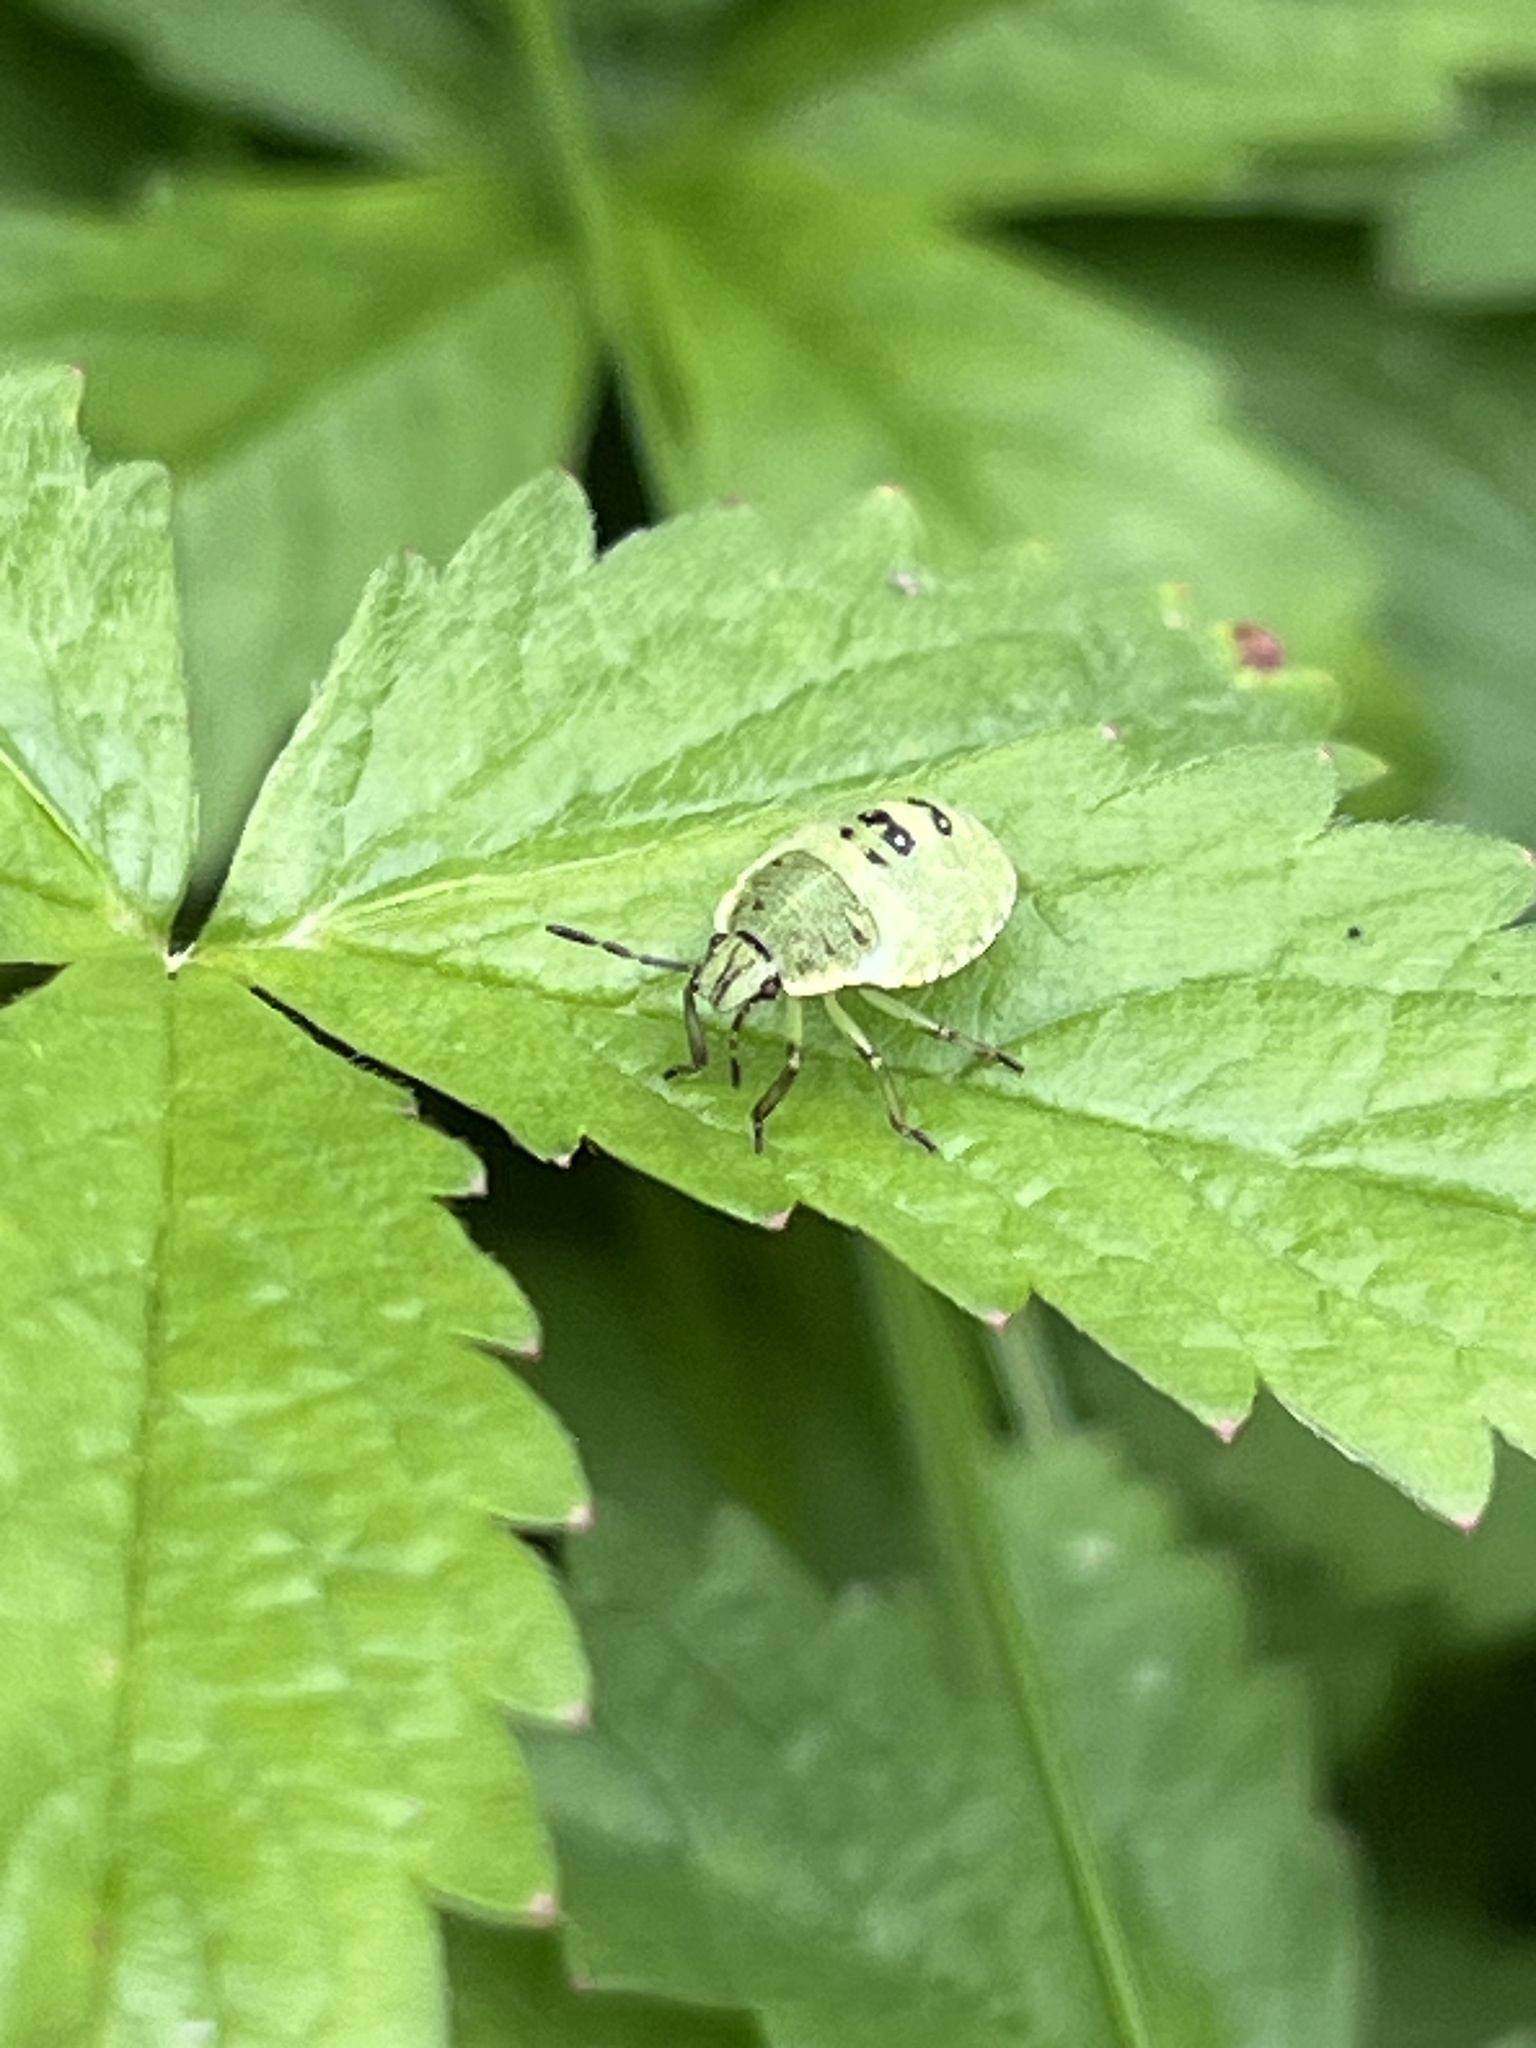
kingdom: Animalia
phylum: Arthropoda
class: Insecta
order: Hemiptera
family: Pentatomidae
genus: Palomena
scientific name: Palomena prasina
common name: Green shieldbug
